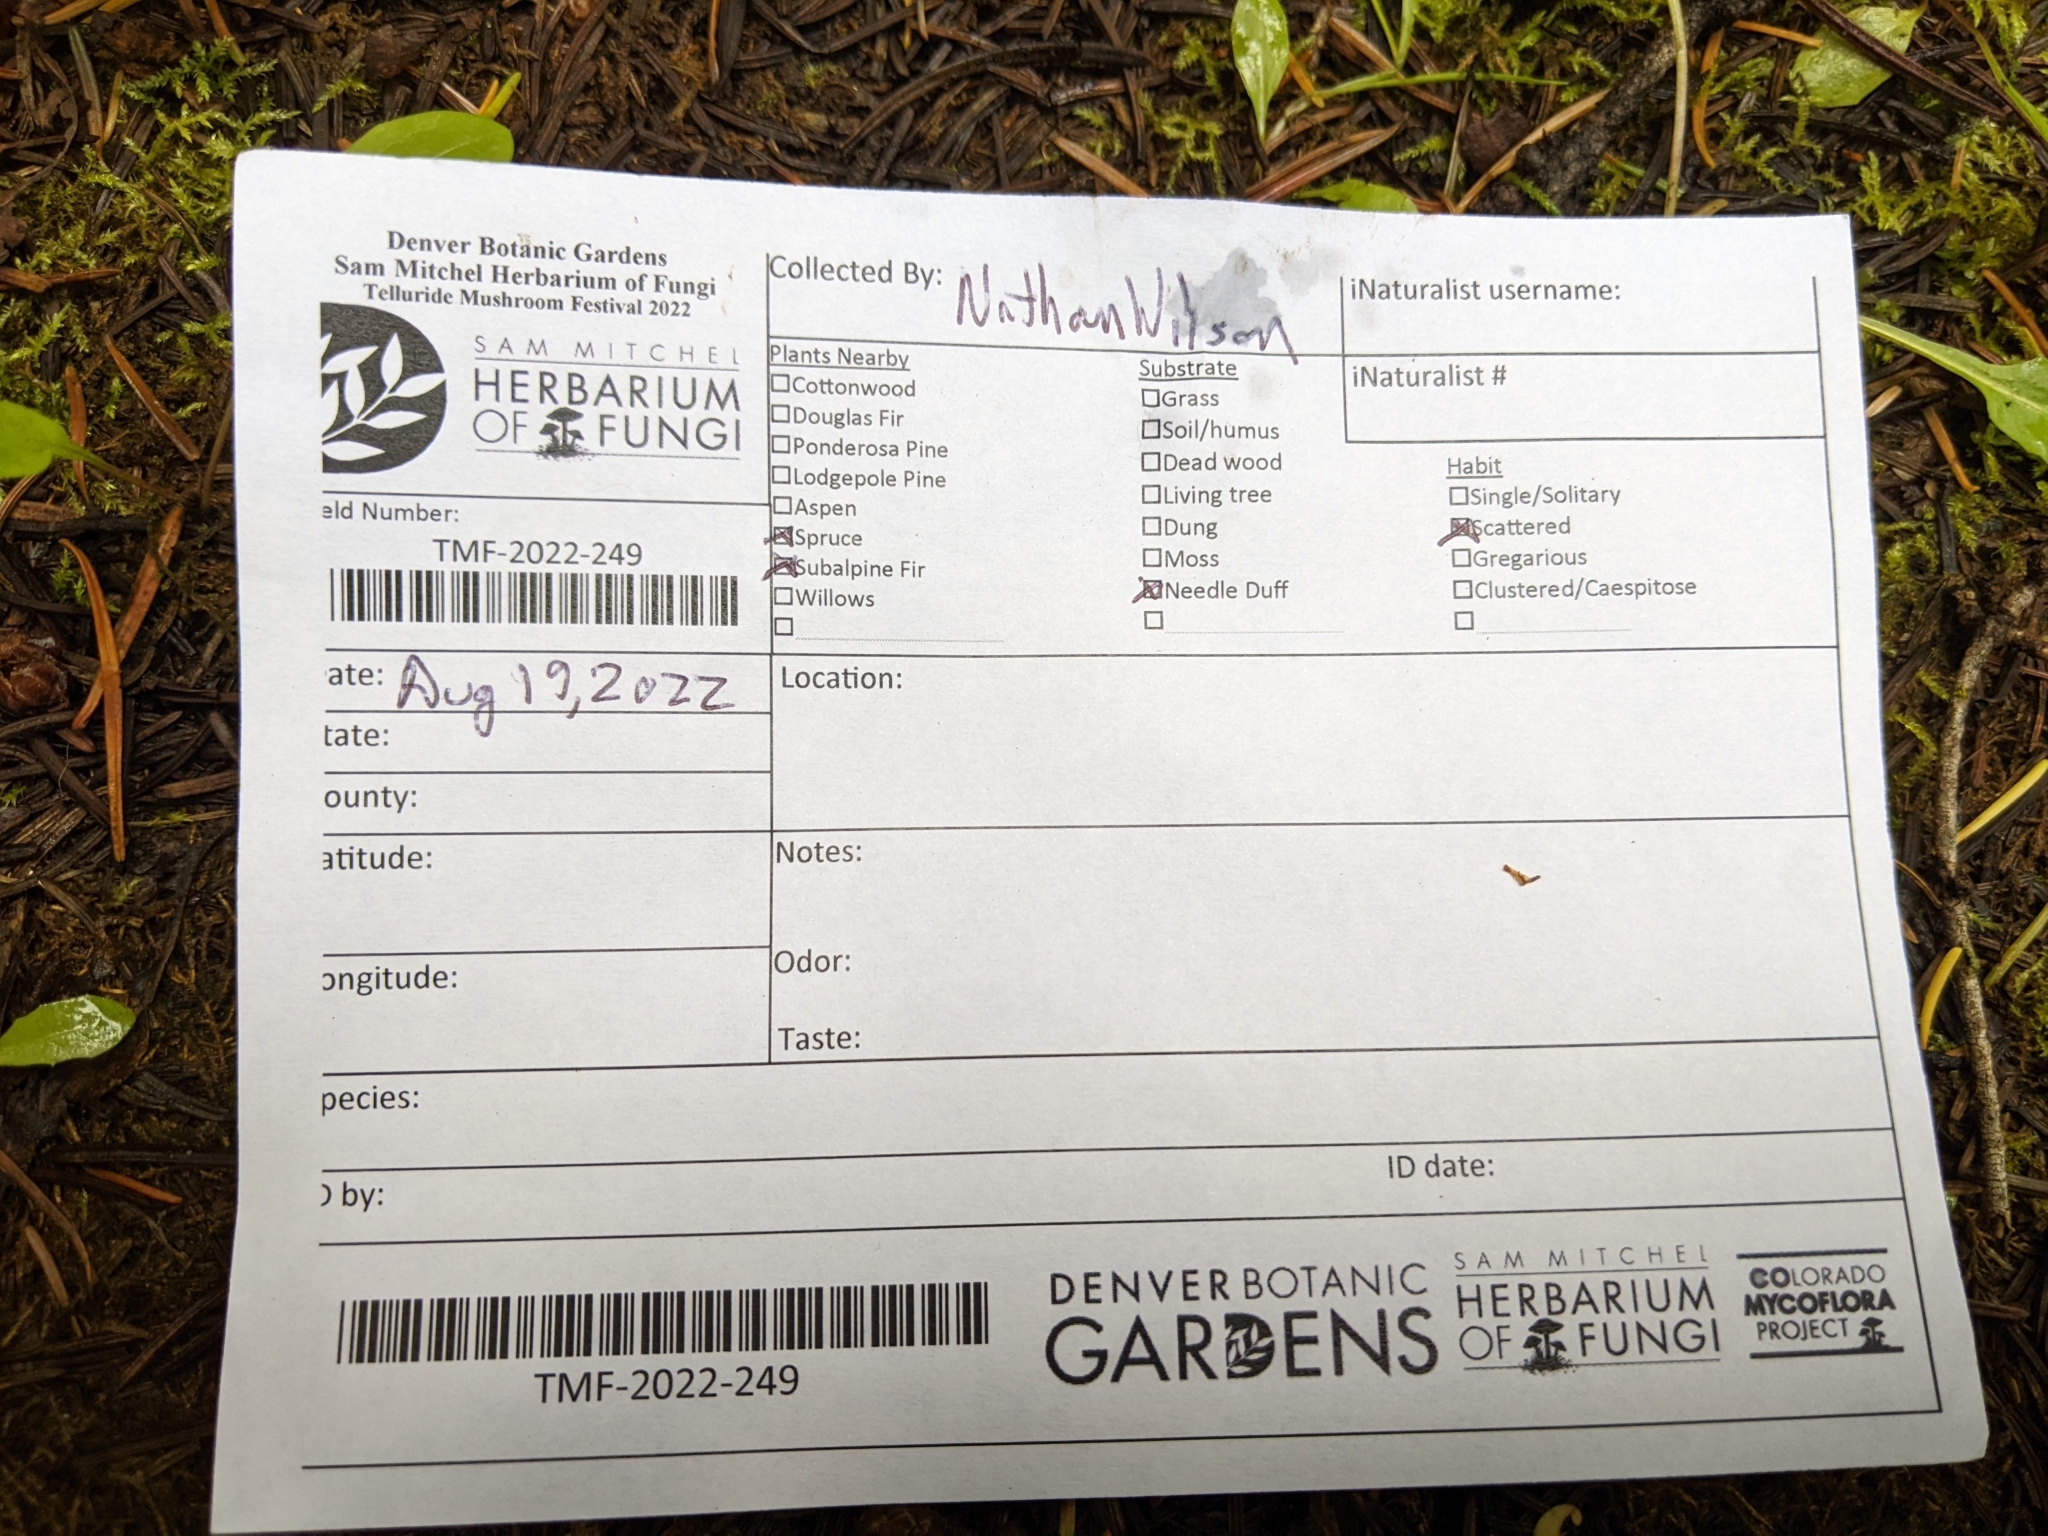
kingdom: Fungi
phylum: Basidiomycota
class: Agaricomycetes
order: Agaricales
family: Lyophyllaceae
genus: Calocybe
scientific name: Calocybe naucoria
